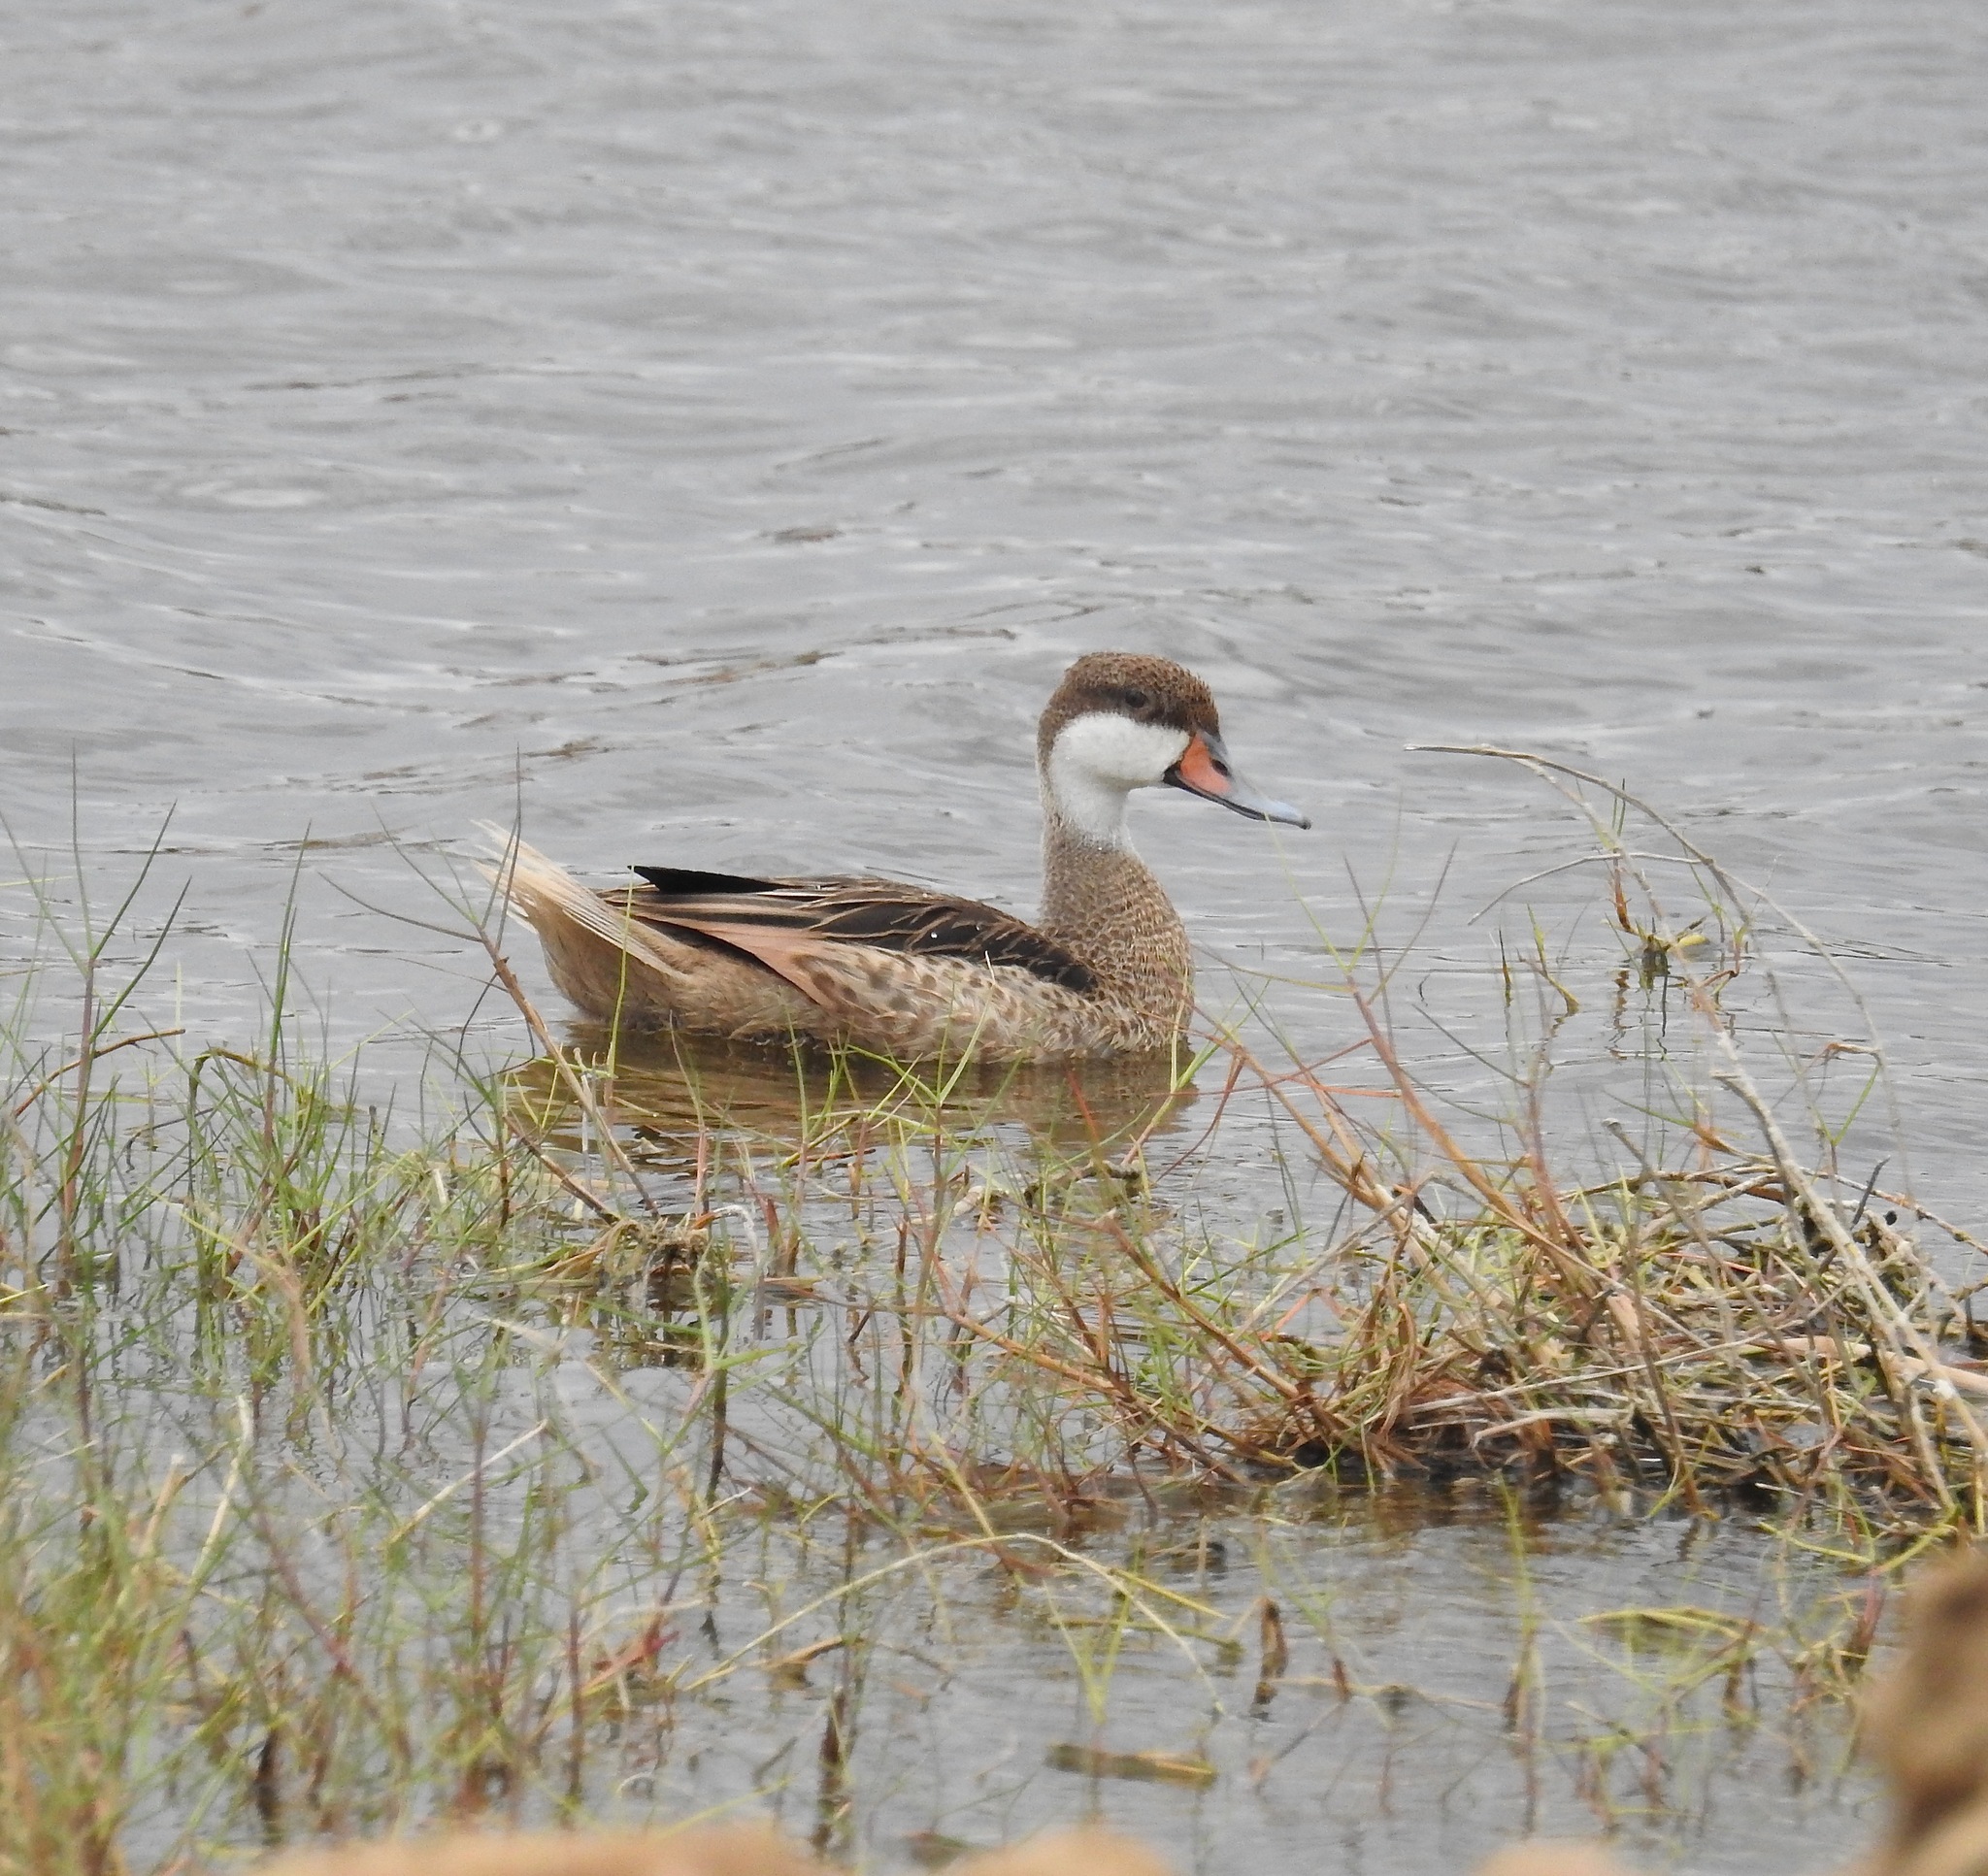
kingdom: Animalia
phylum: Chordata
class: Aves
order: Anseriformes
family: Anatidae
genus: Anas
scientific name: Anas bahamensis
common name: White-cheeked pintail
